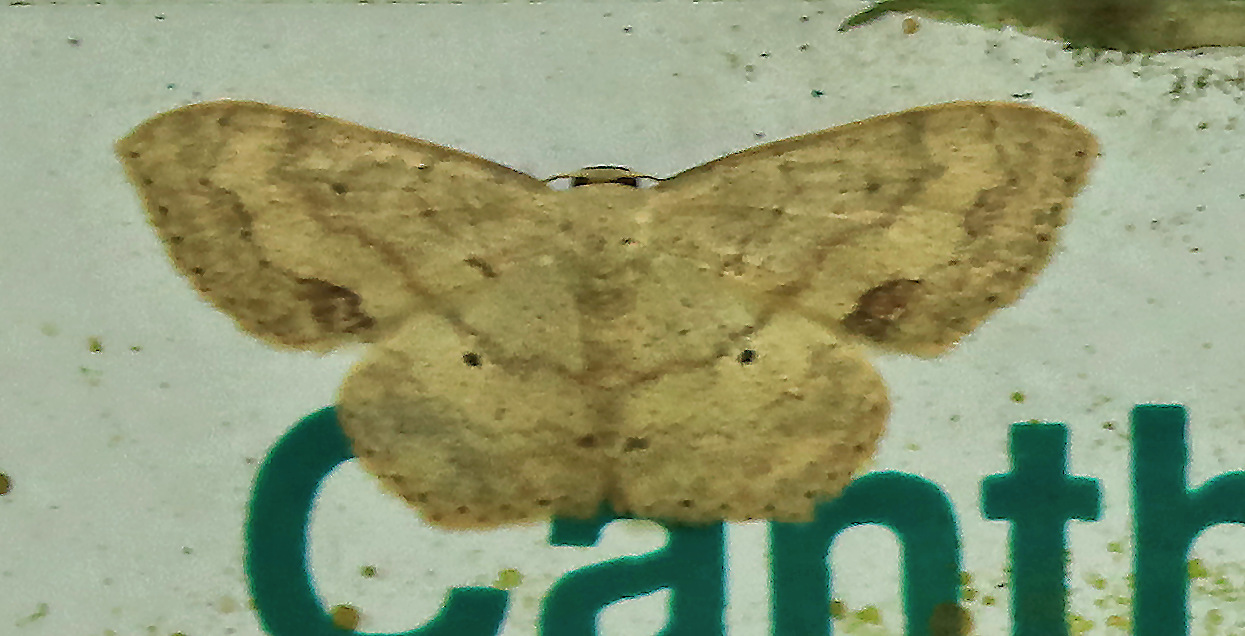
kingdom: Animalia
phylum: Arthropoda
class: Insecta
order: Lepidoptera
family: Geometridae
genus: Scopula
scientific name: Scopula internata
